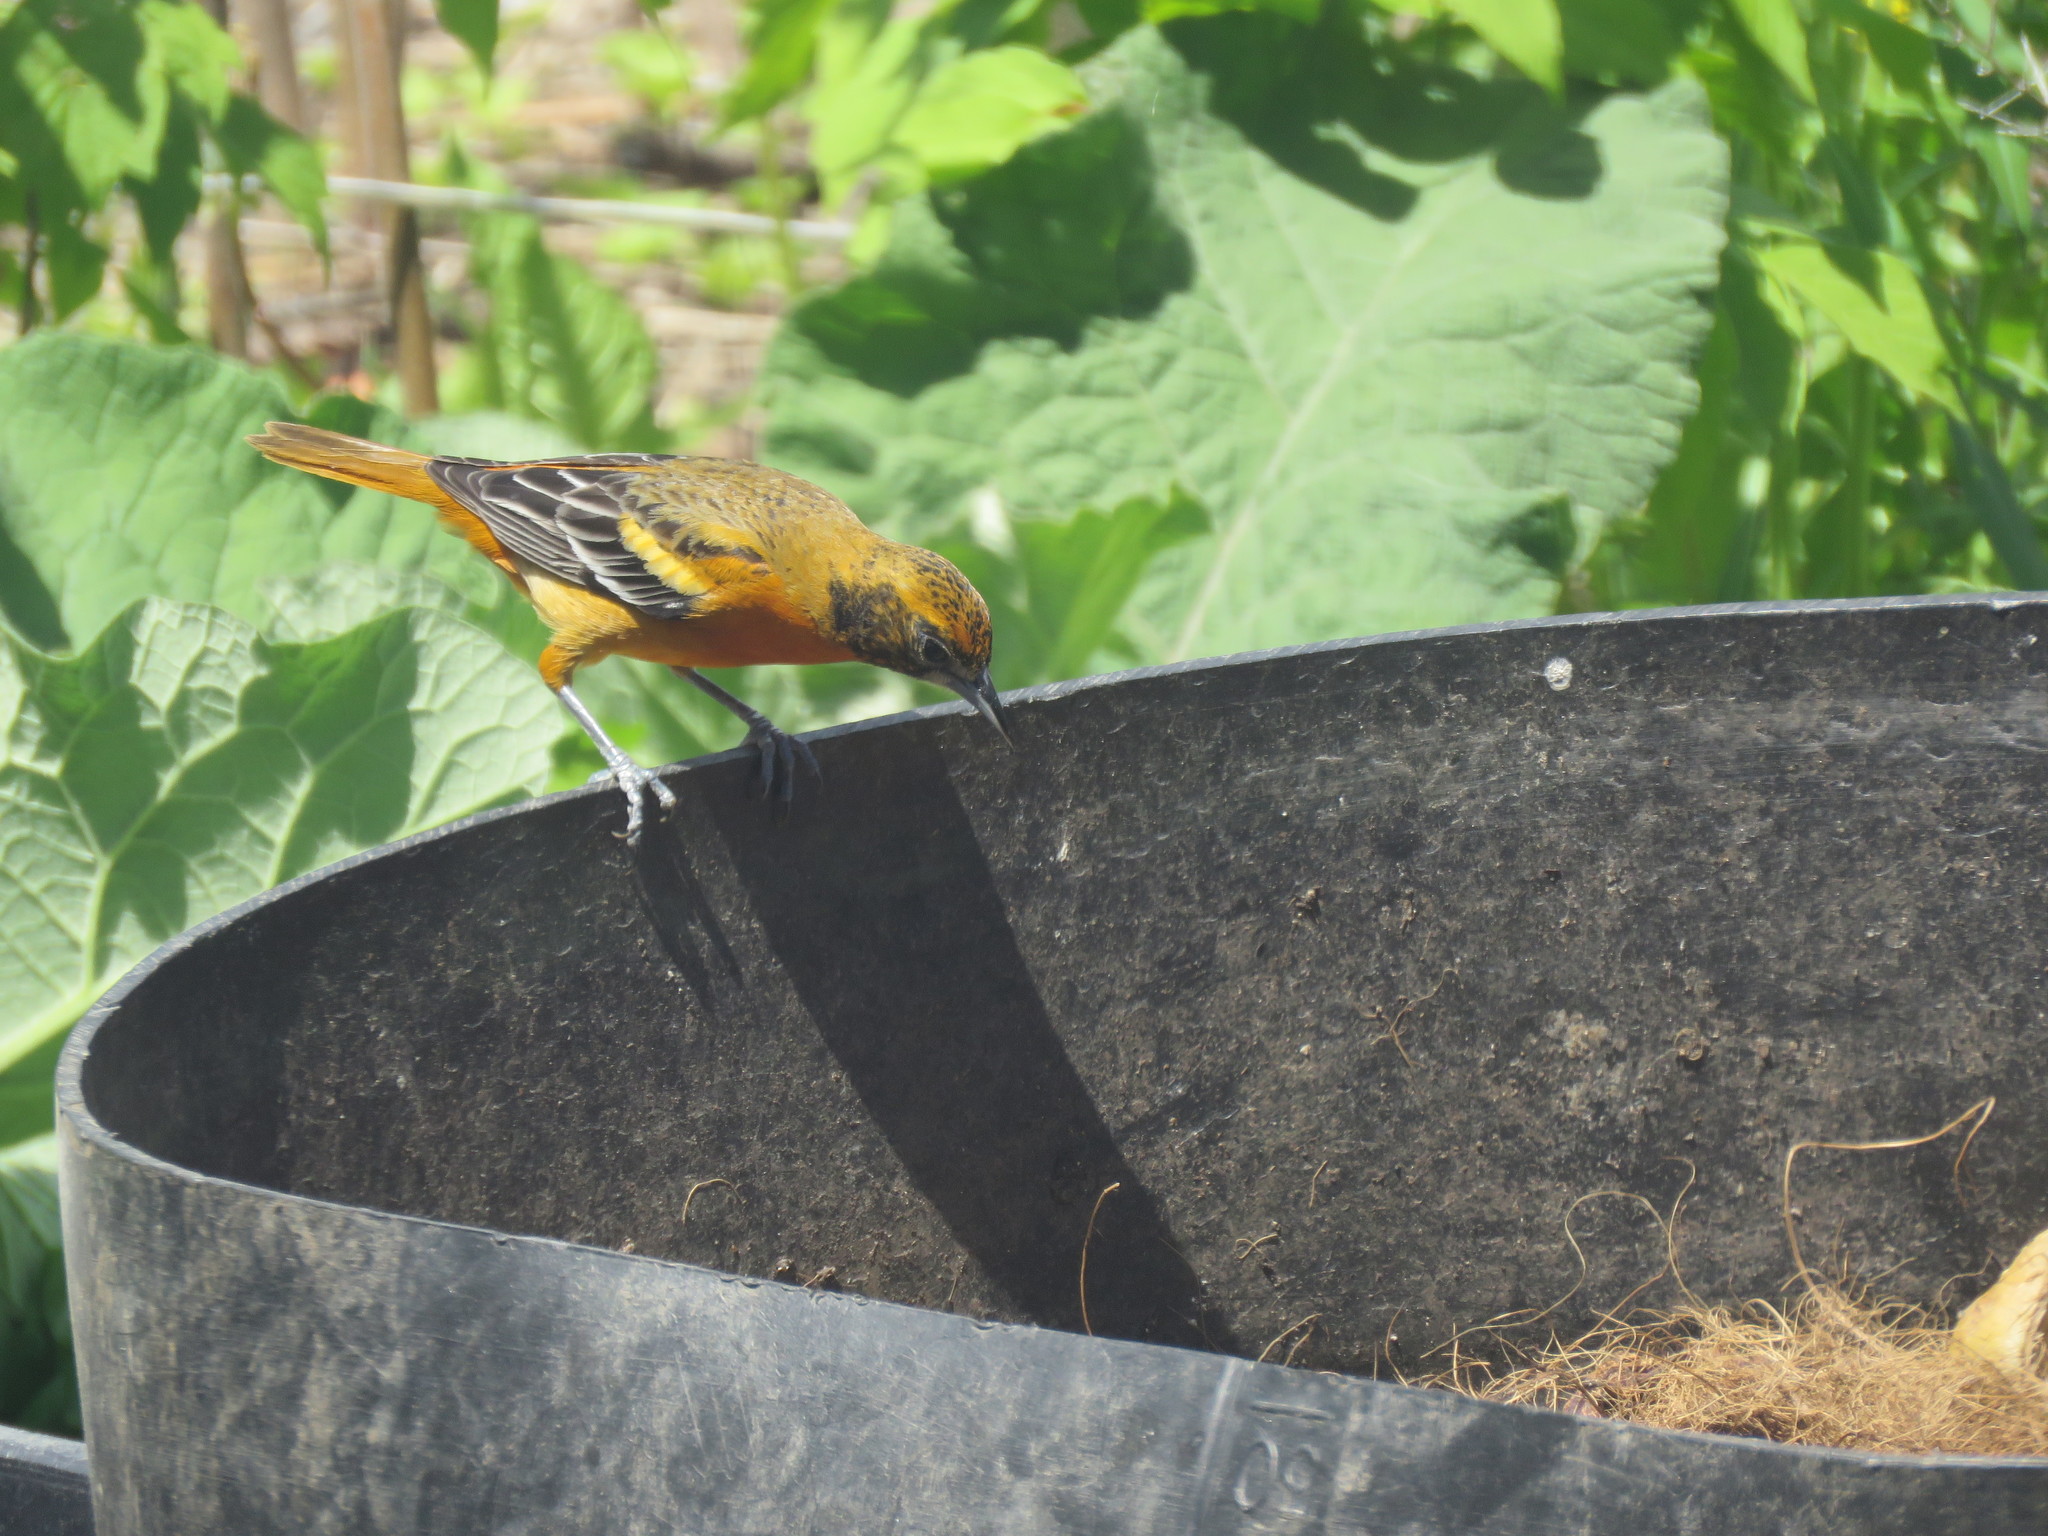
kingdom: Animalia
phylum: Chordata
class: Aves
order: Passeriformes
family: Icteridae
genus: Icterus
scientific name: Icterus galbula
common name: Baltimore oriole
